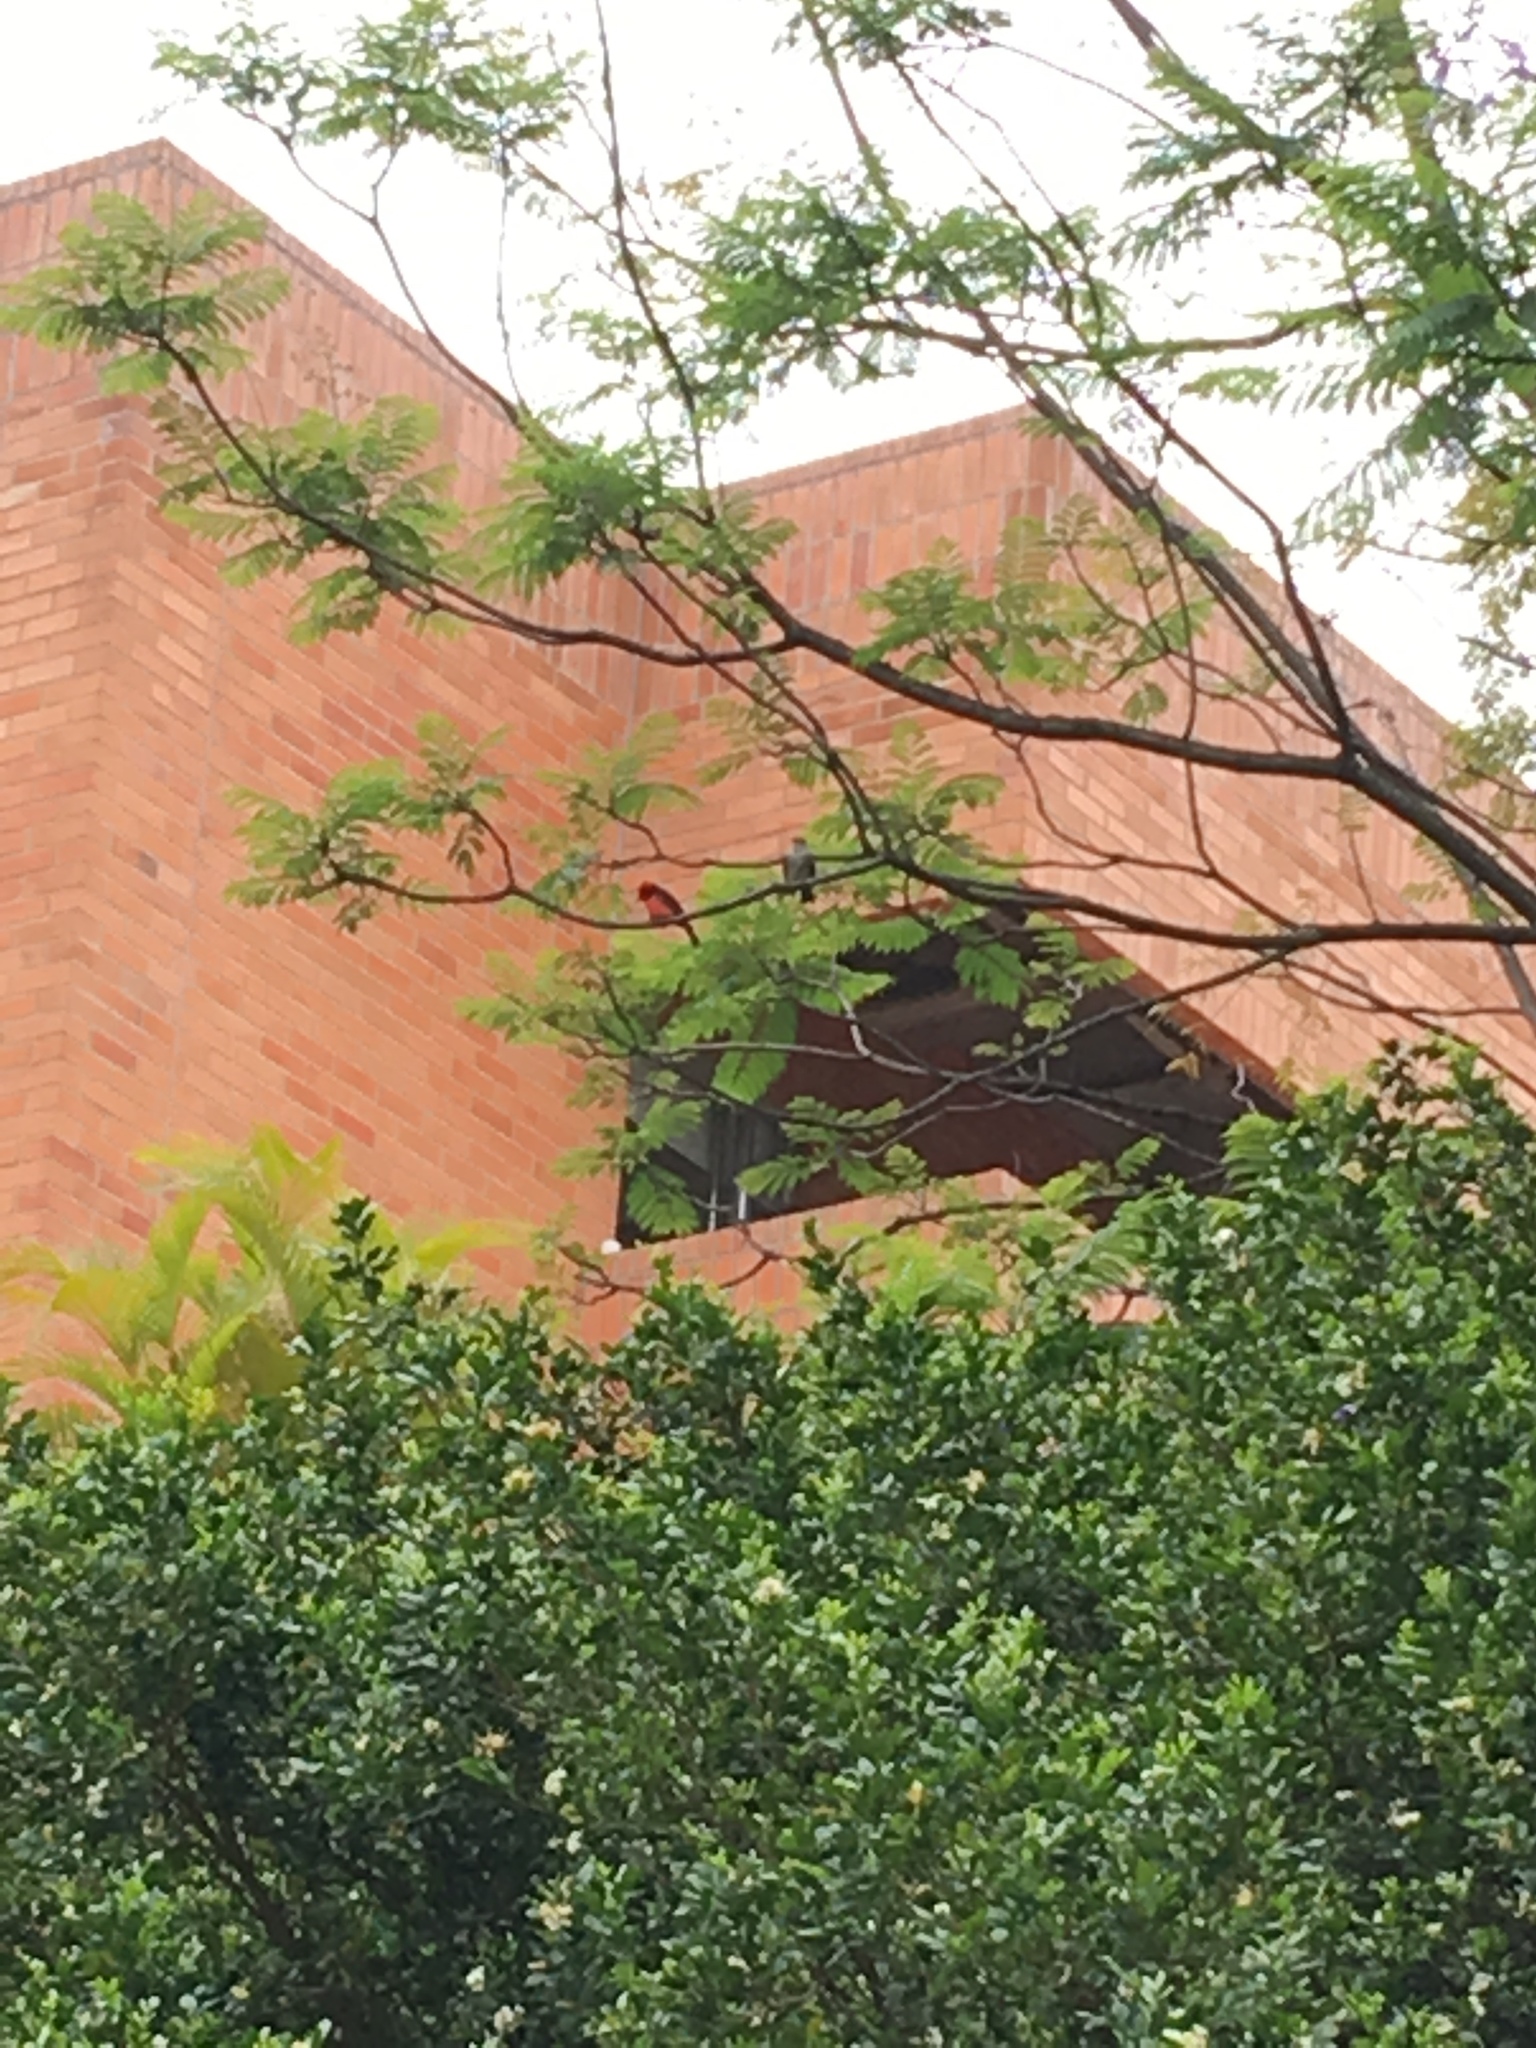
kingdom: Animalia
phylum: Chordata
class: Aves
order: Passeriformes
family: Tyrannidae
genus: Pyrocephalus
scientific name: Pyrocephalus rubinus
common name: Vermilion flycatcher
